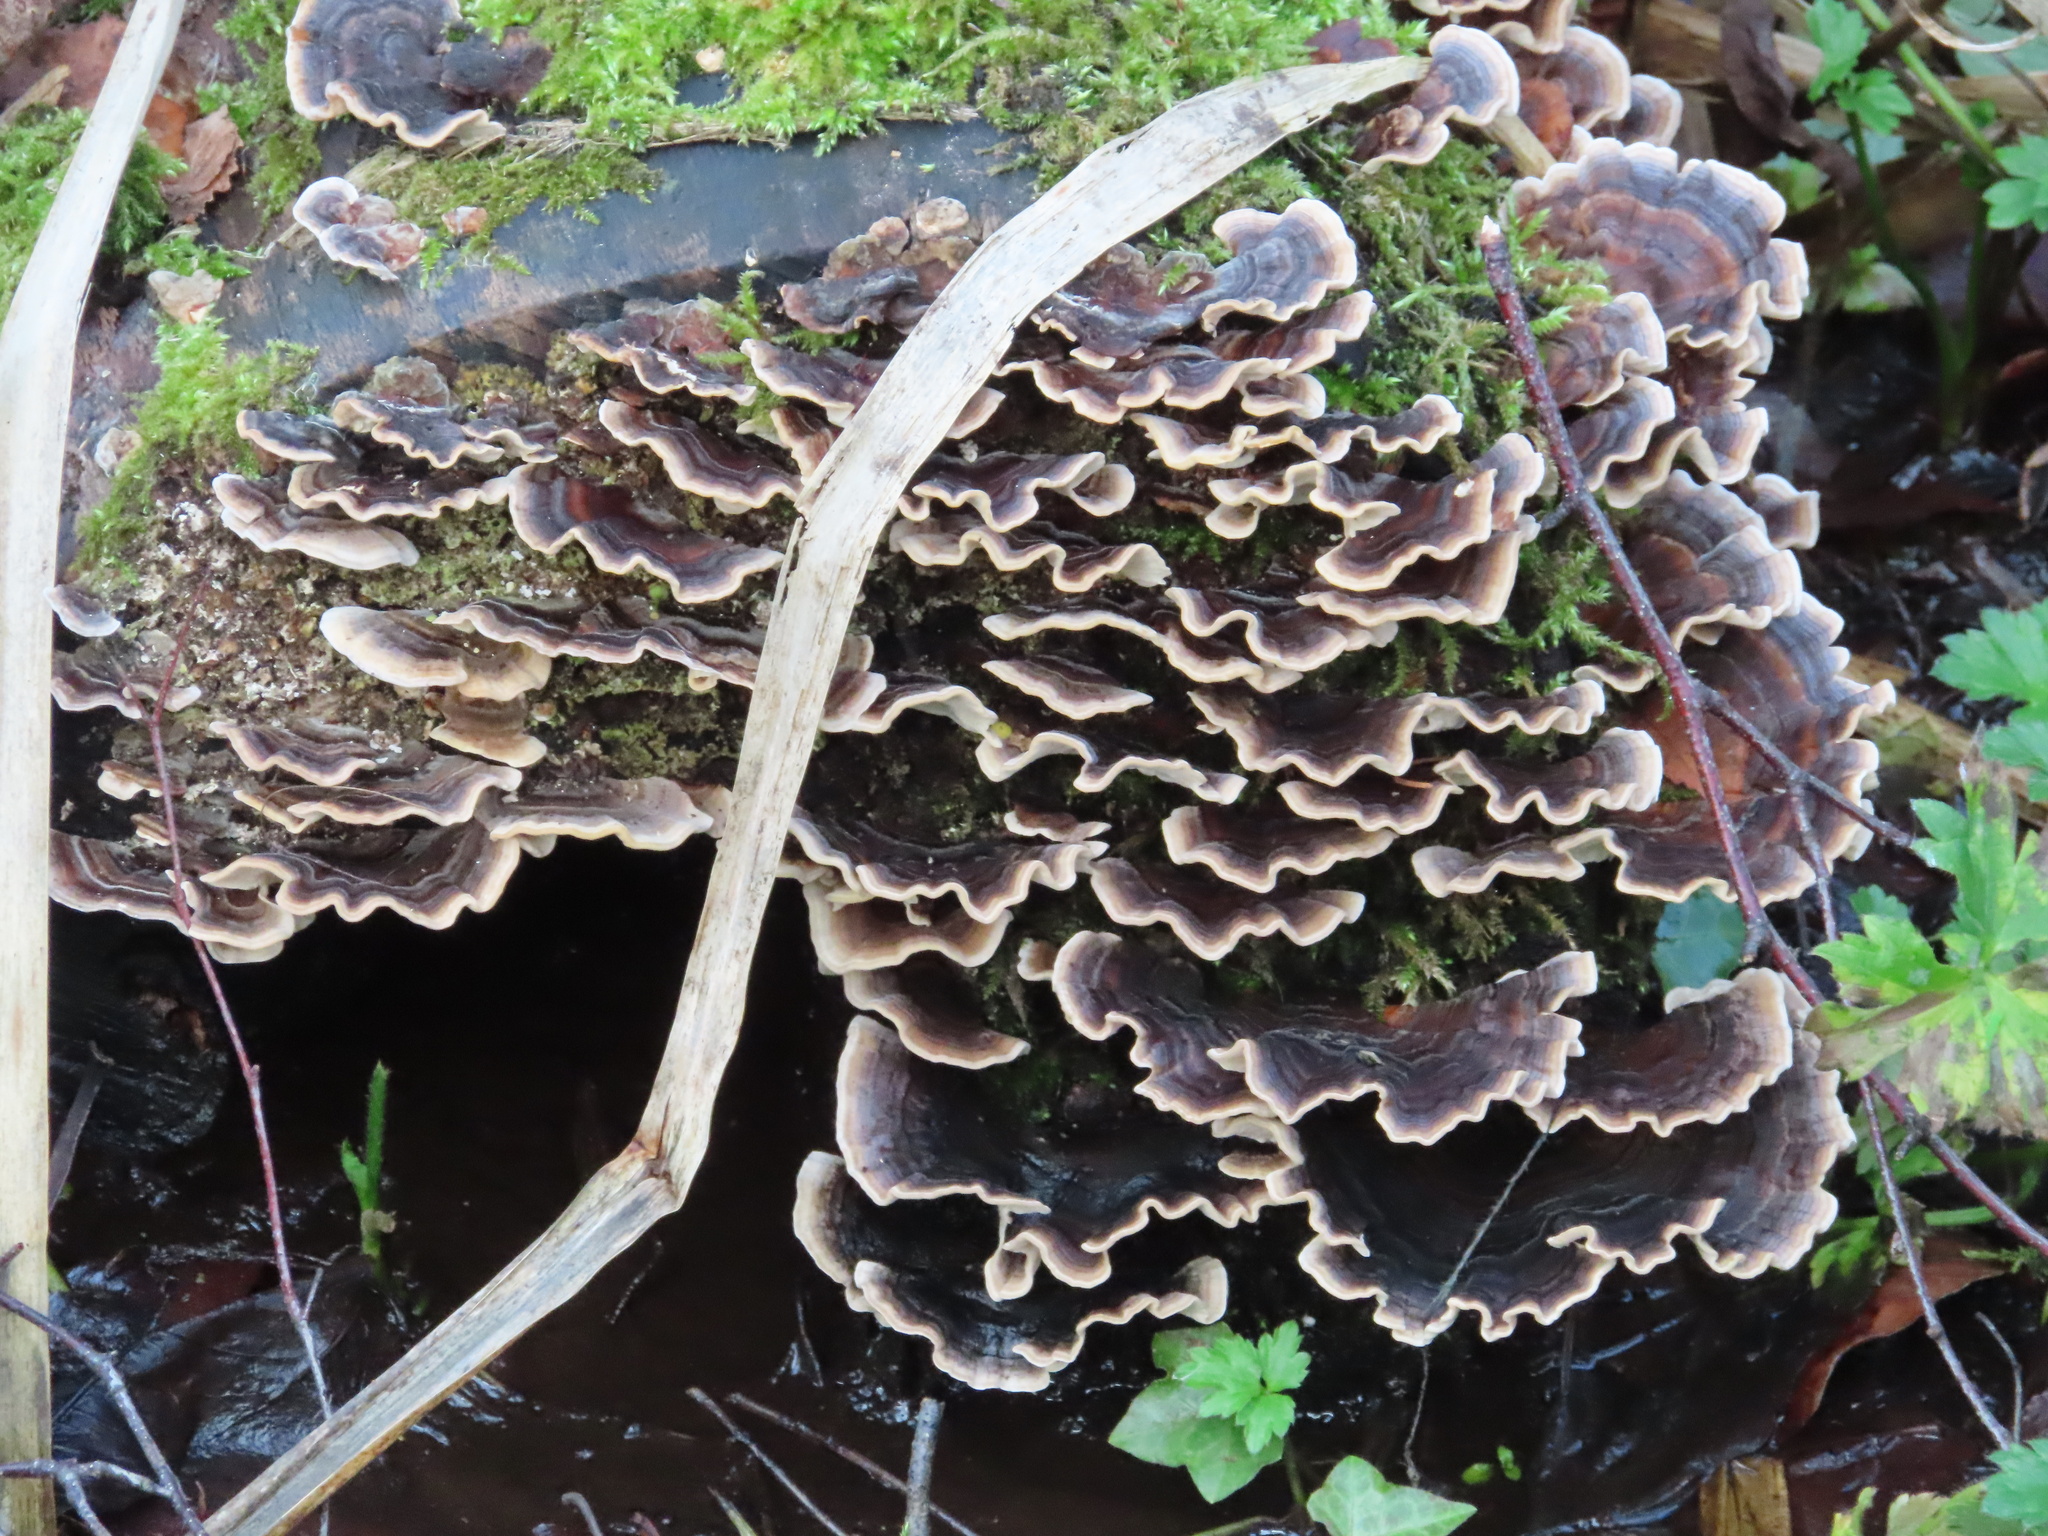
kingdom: Fungi
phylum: Basidiomycota
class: Agaricomycetes
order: Polyporales
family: Polyporaceae
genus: Trametes
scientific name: Trametes versicolor
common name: Turkeytail
